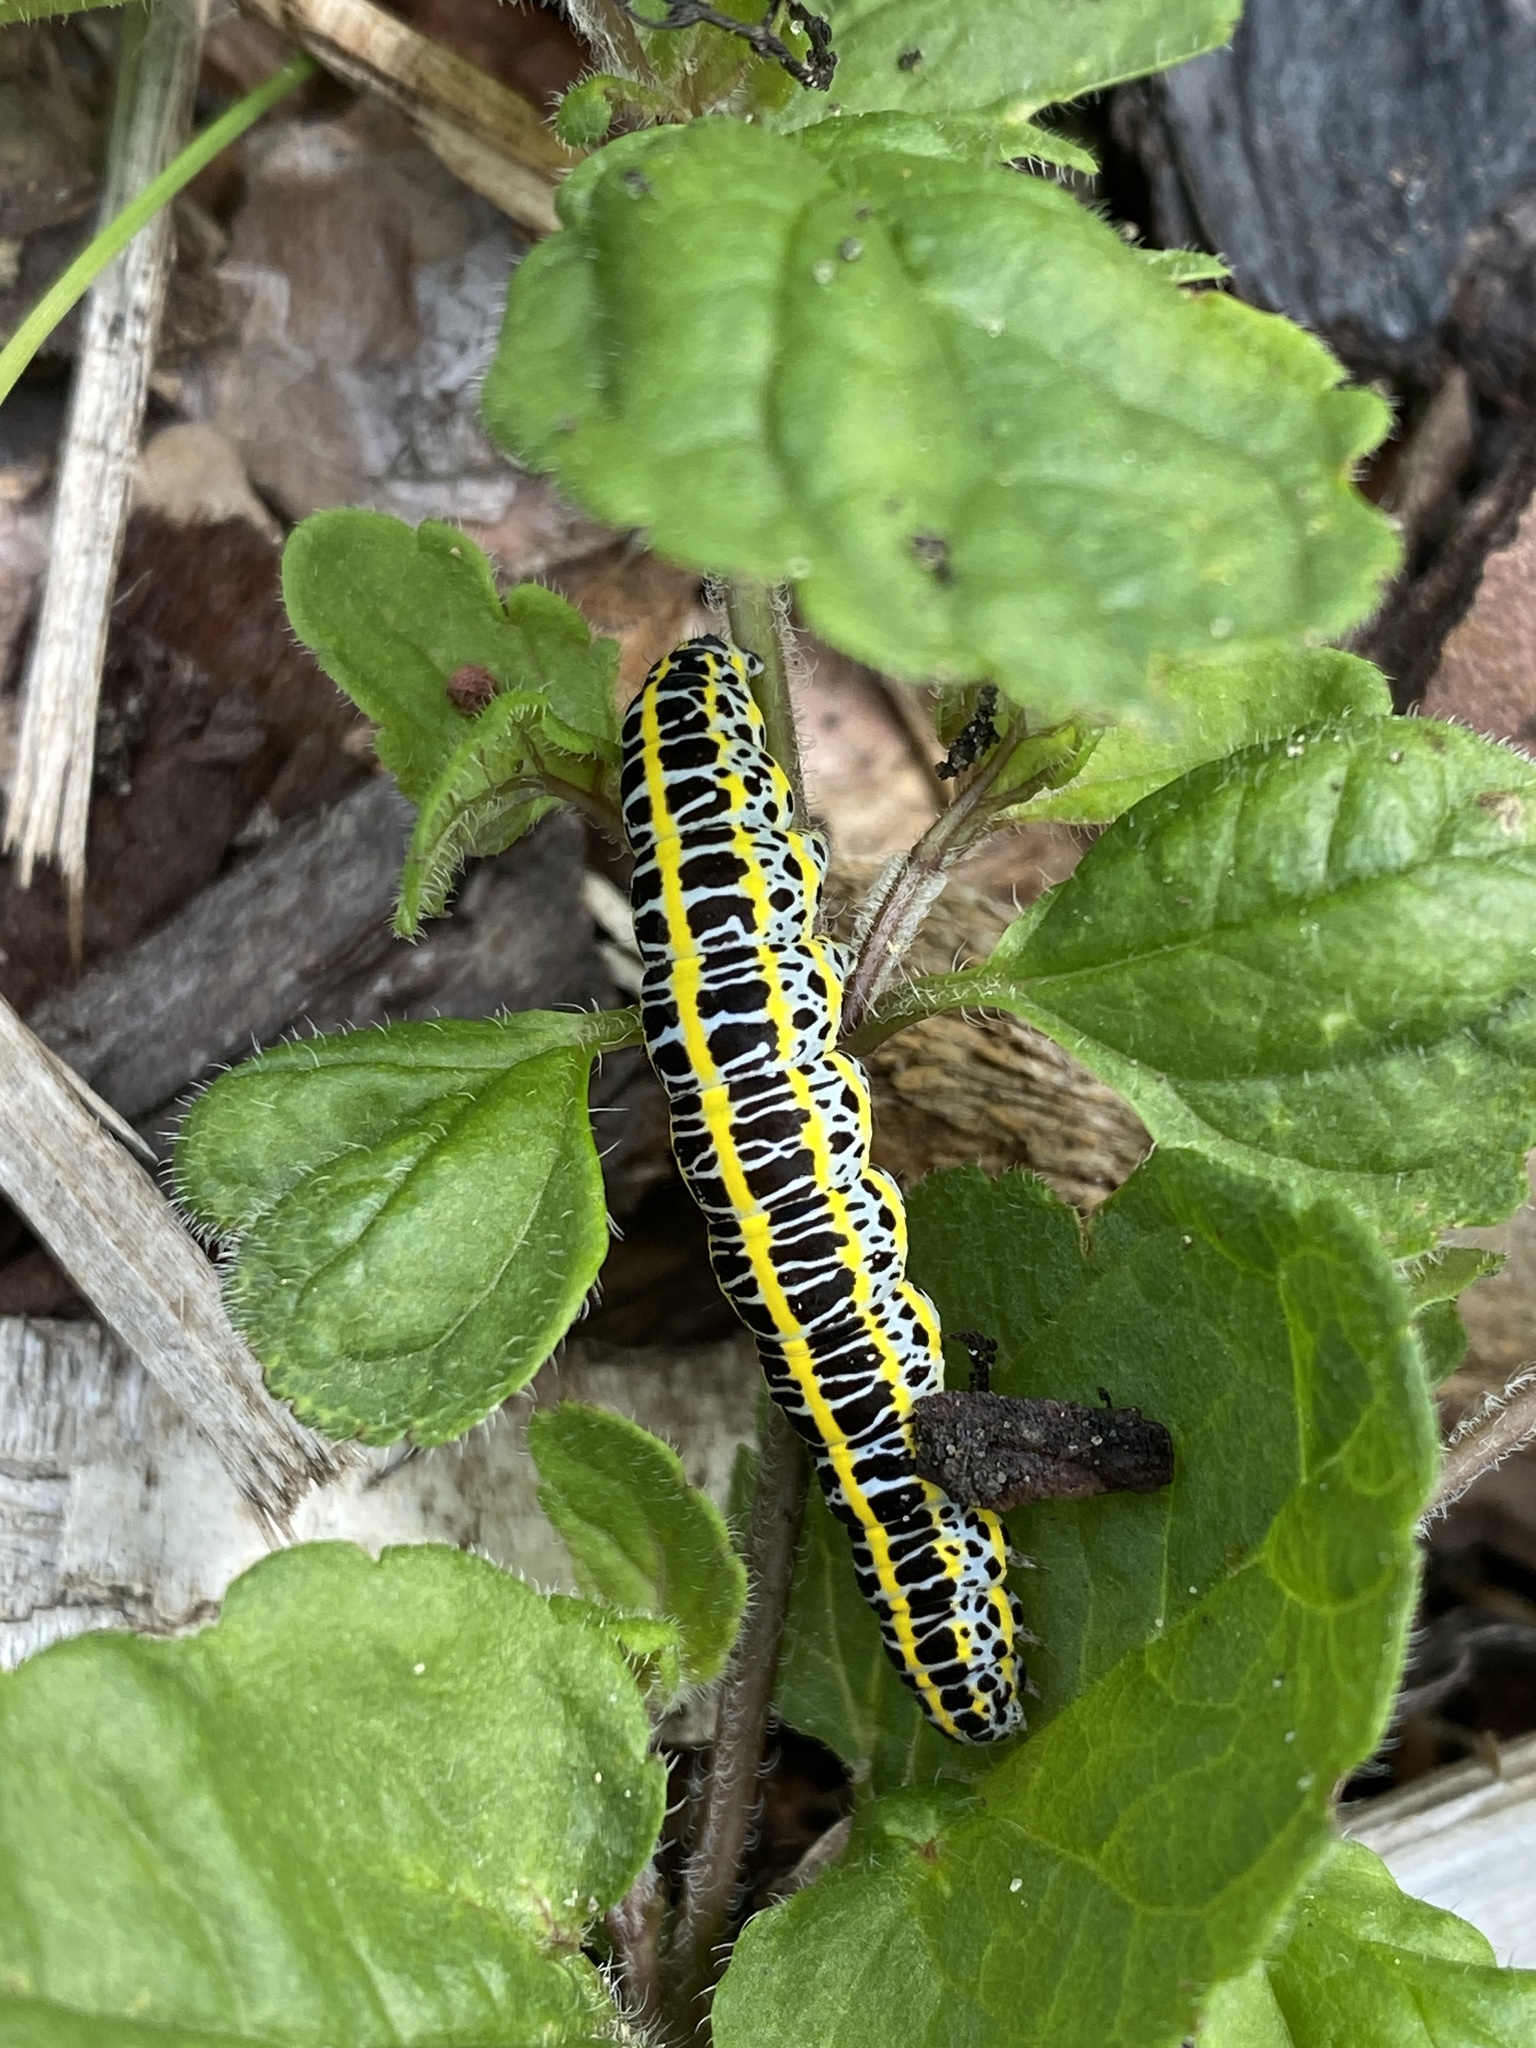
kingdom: Animalia
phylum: Arthropoda
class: Insecta
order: Lepidoptera
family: Noctuidae
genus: Calophasia
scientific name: Calophasia lunula
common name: Toadflax brocade
